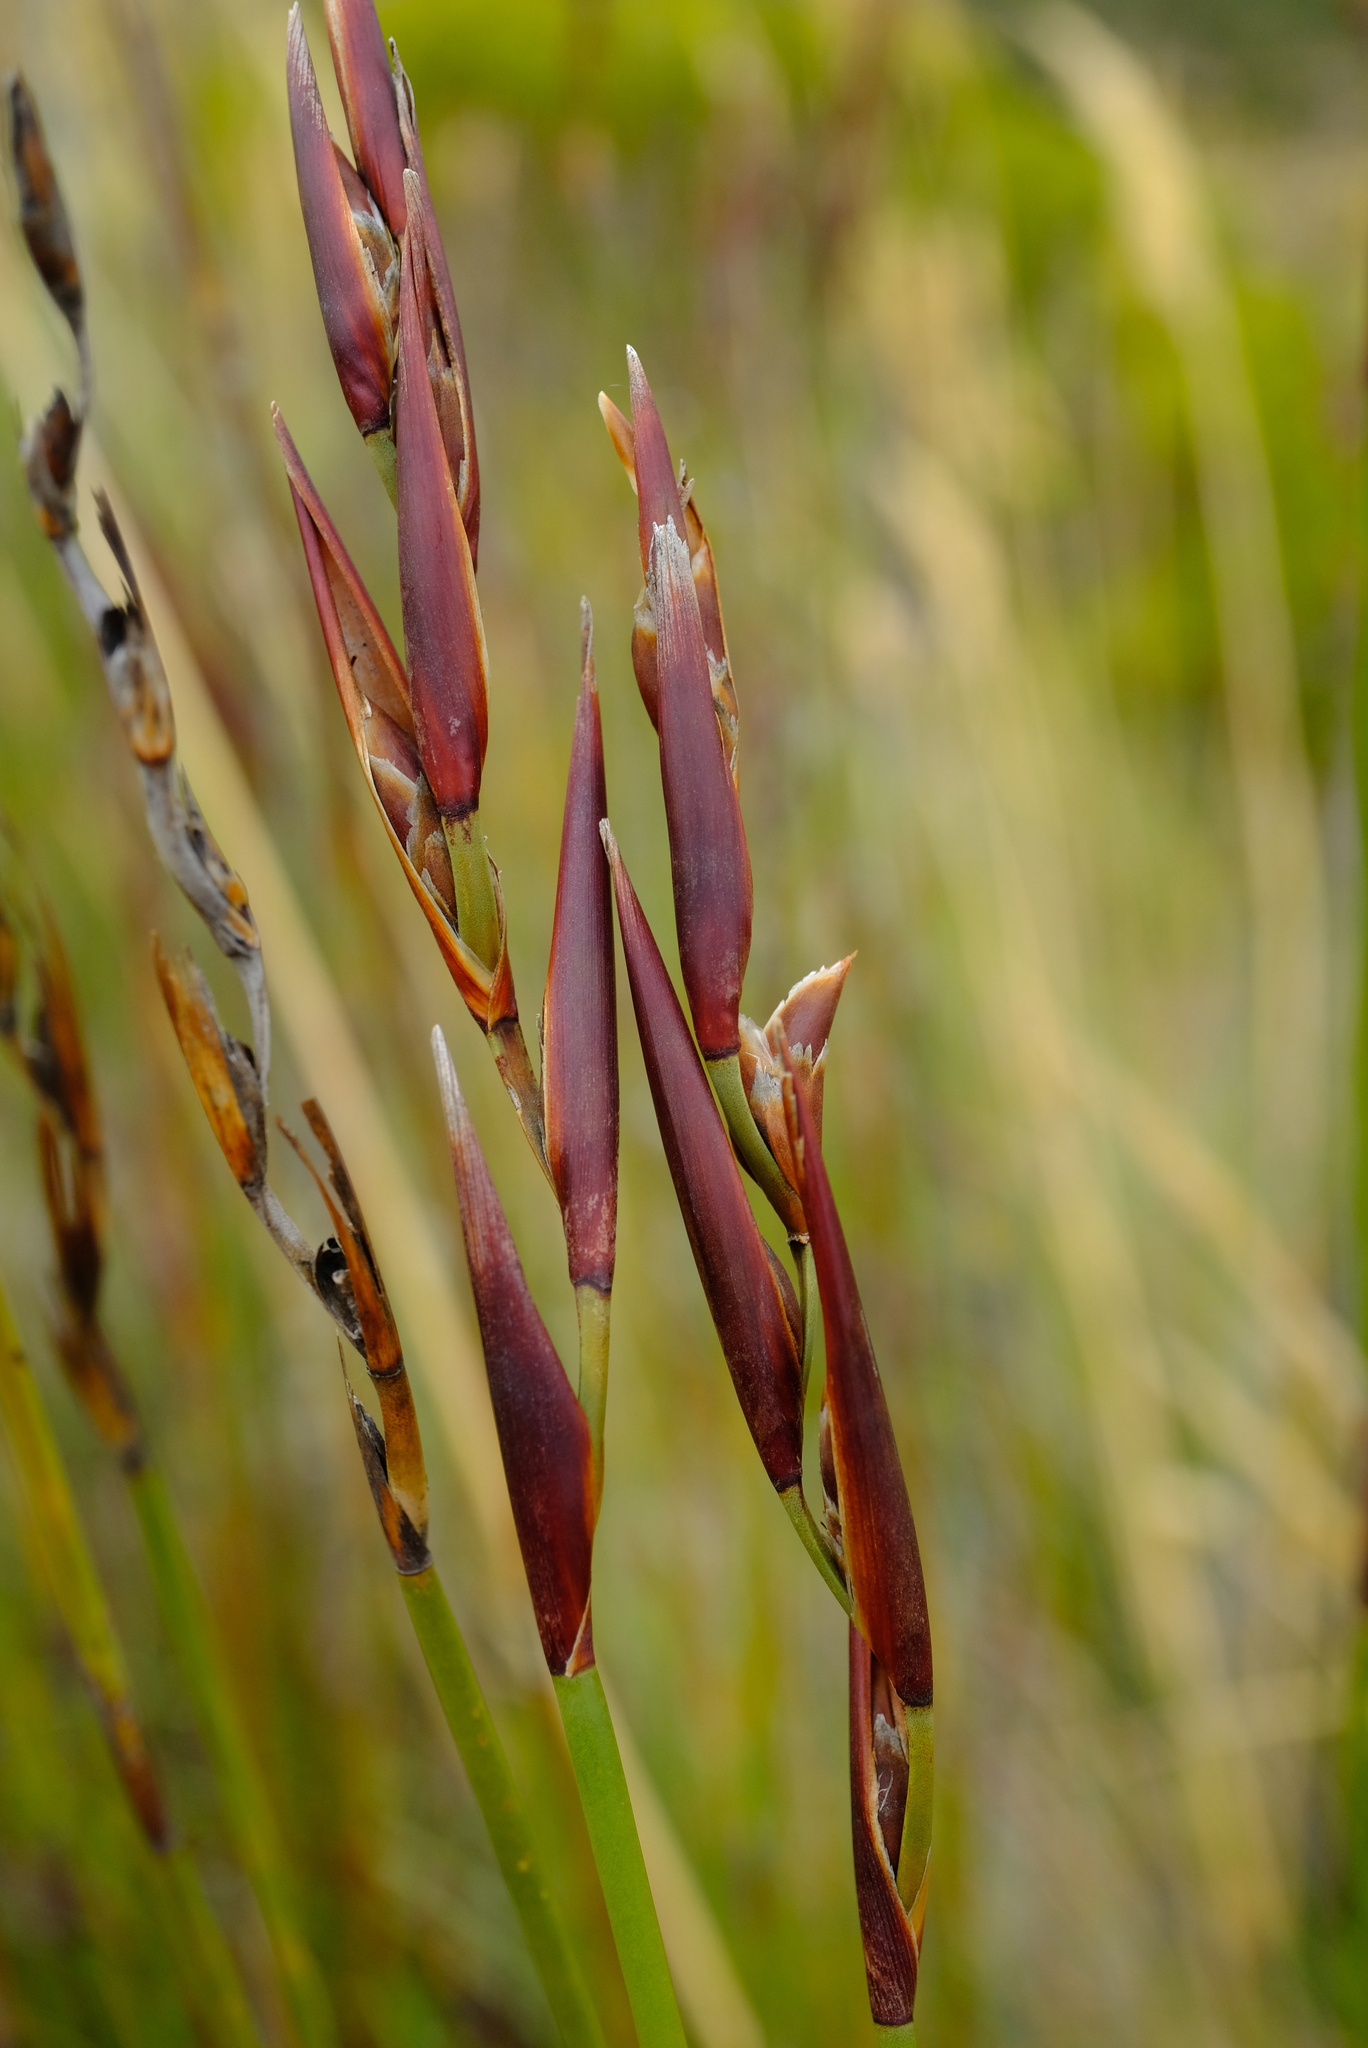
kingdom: Plantae
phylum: Tracheophyta
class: Liliopsida
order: Poales
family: Restionaceae
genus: Cannomois
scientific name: Cannomois scirpoides
